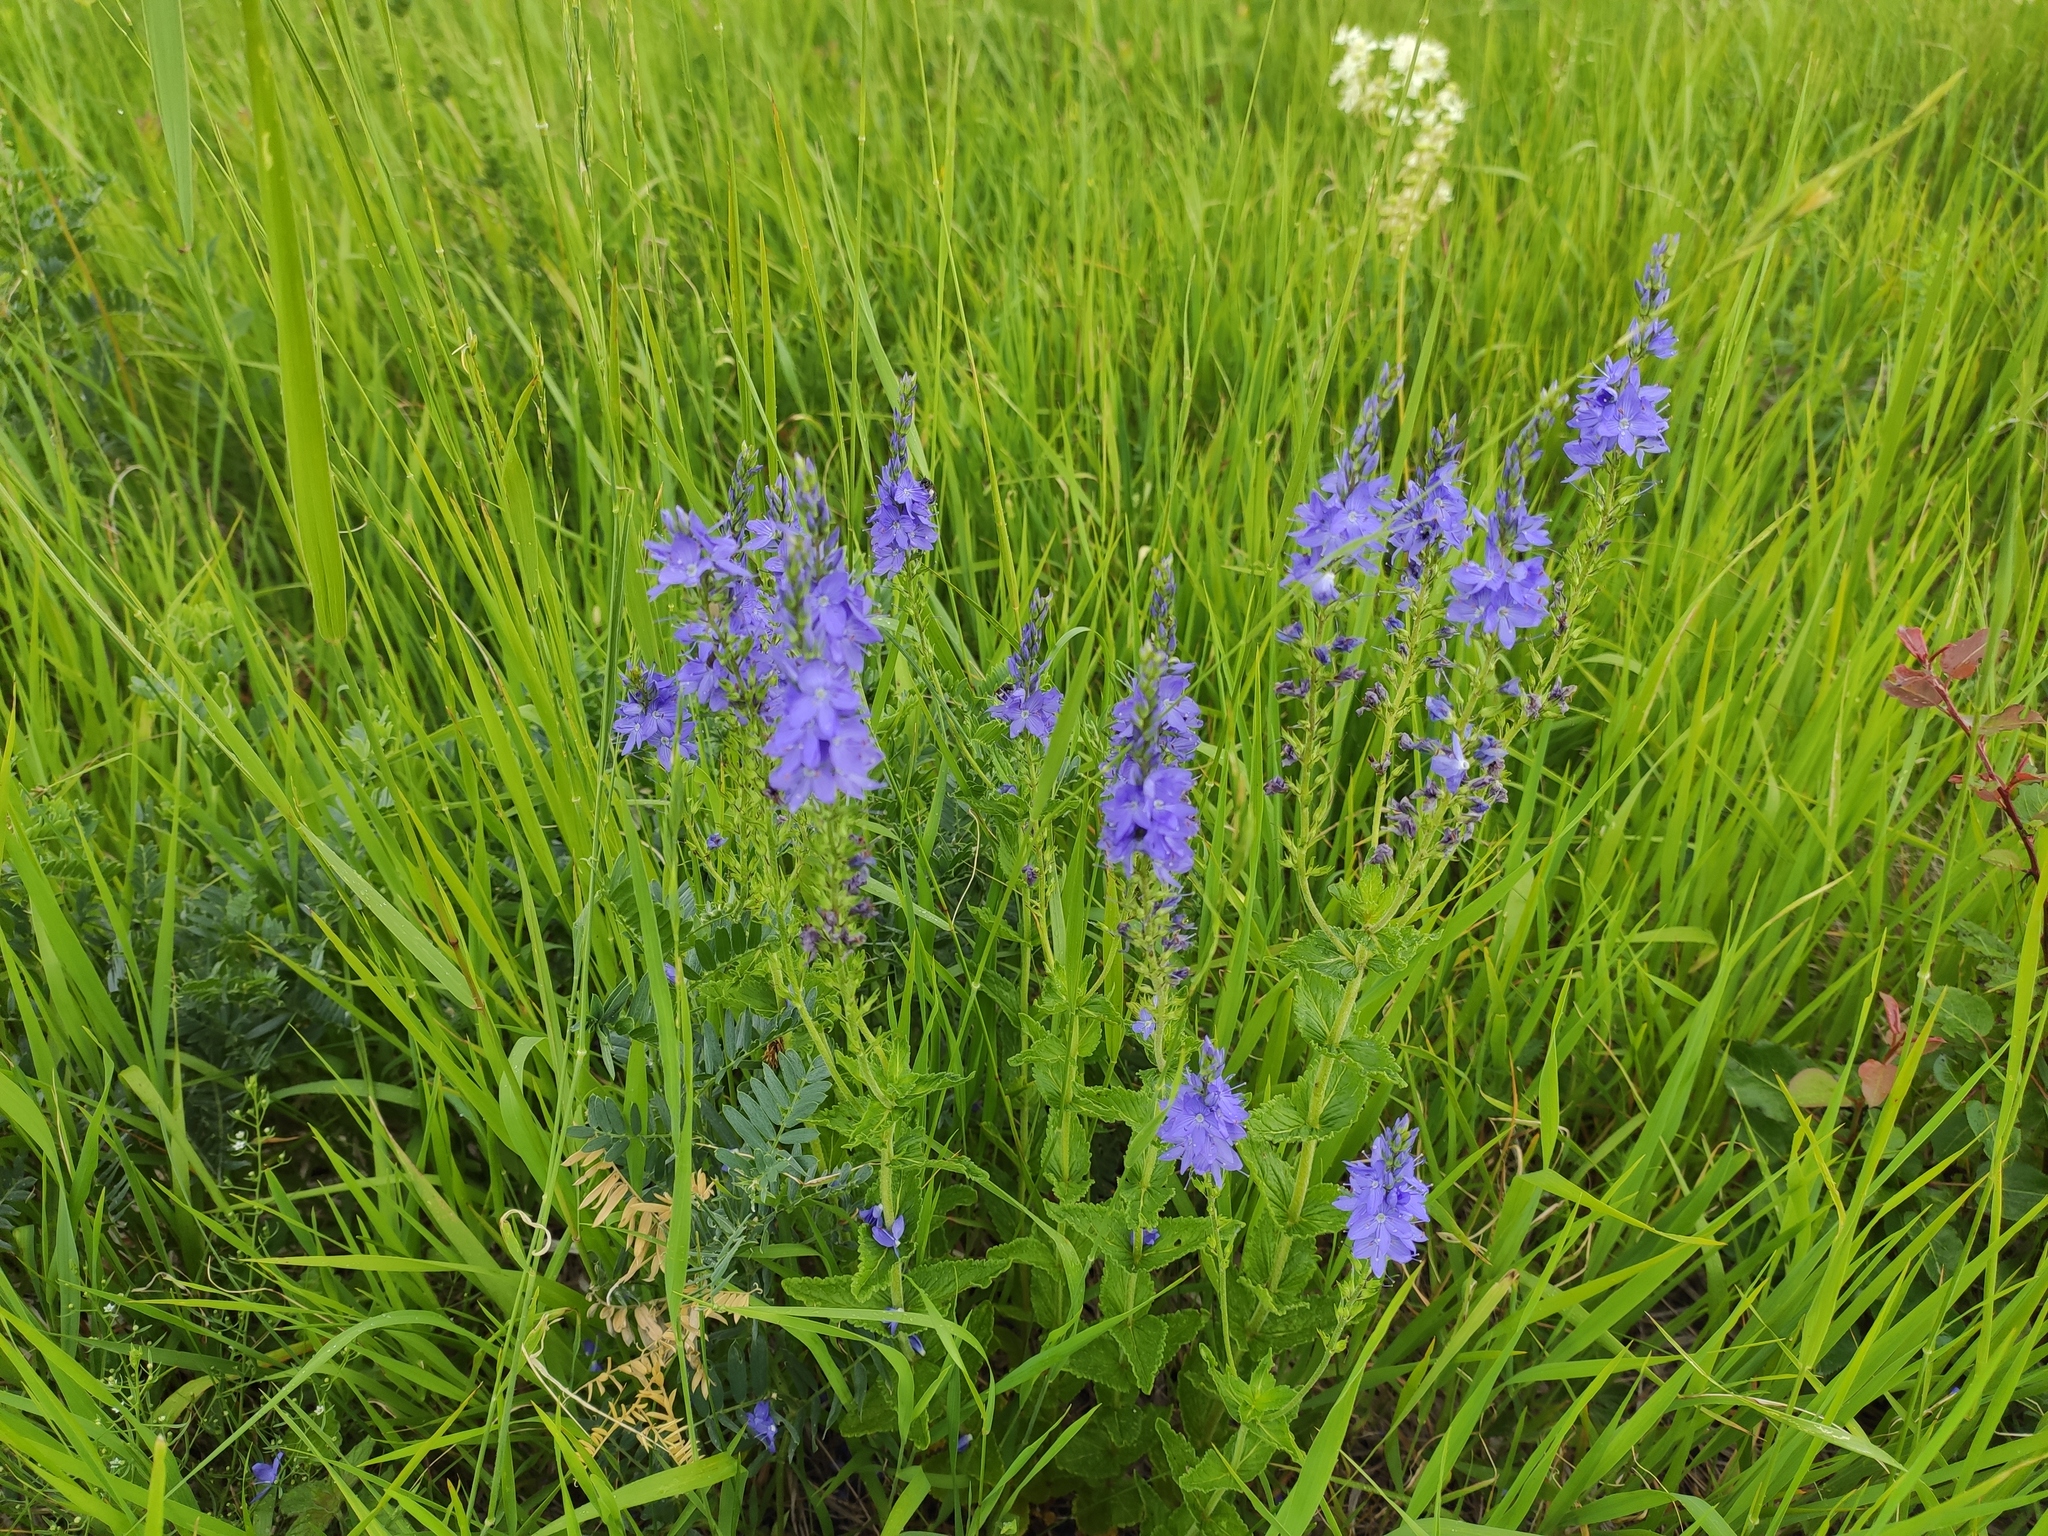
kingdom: Plantae
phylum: Tracheophyta
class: Magnoliopsida
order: Lamiales
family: Plantaginaceae
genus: Veronica
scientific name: Veronica teucrium
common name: Large speedwell
